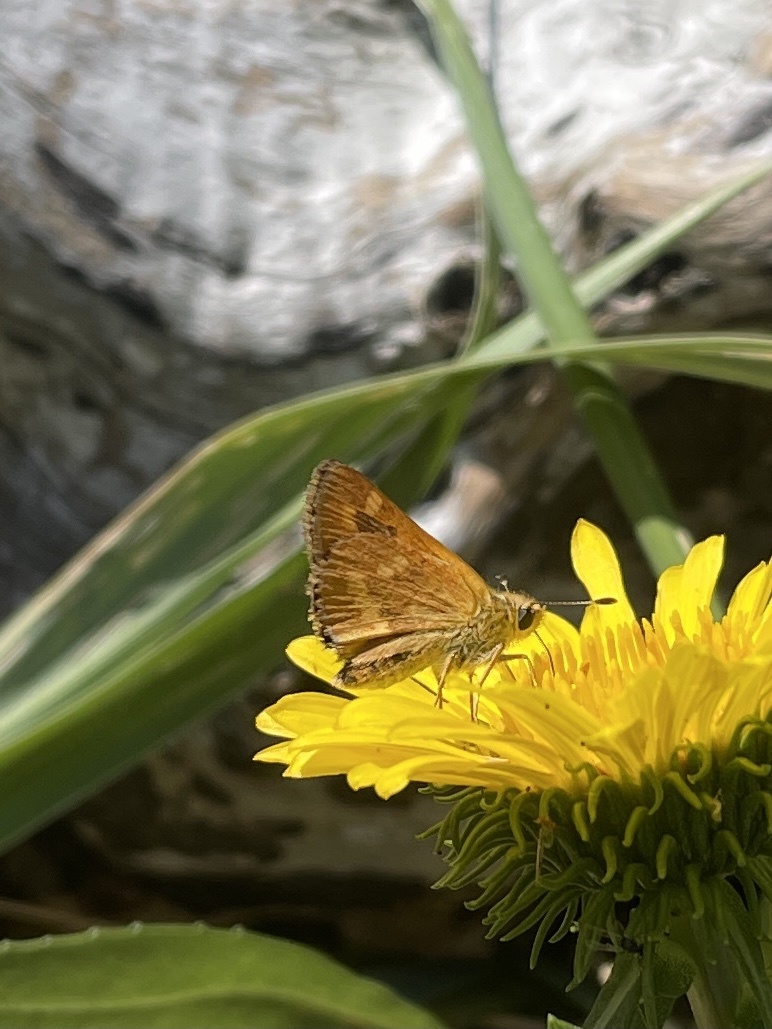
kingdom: Animalia
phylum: Arthropoda
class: Insecta
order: Lepidoptera
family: Hesperiidae
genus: Ochlodes
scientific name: Ochlodes sylvanoides
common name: Woodland skipper
